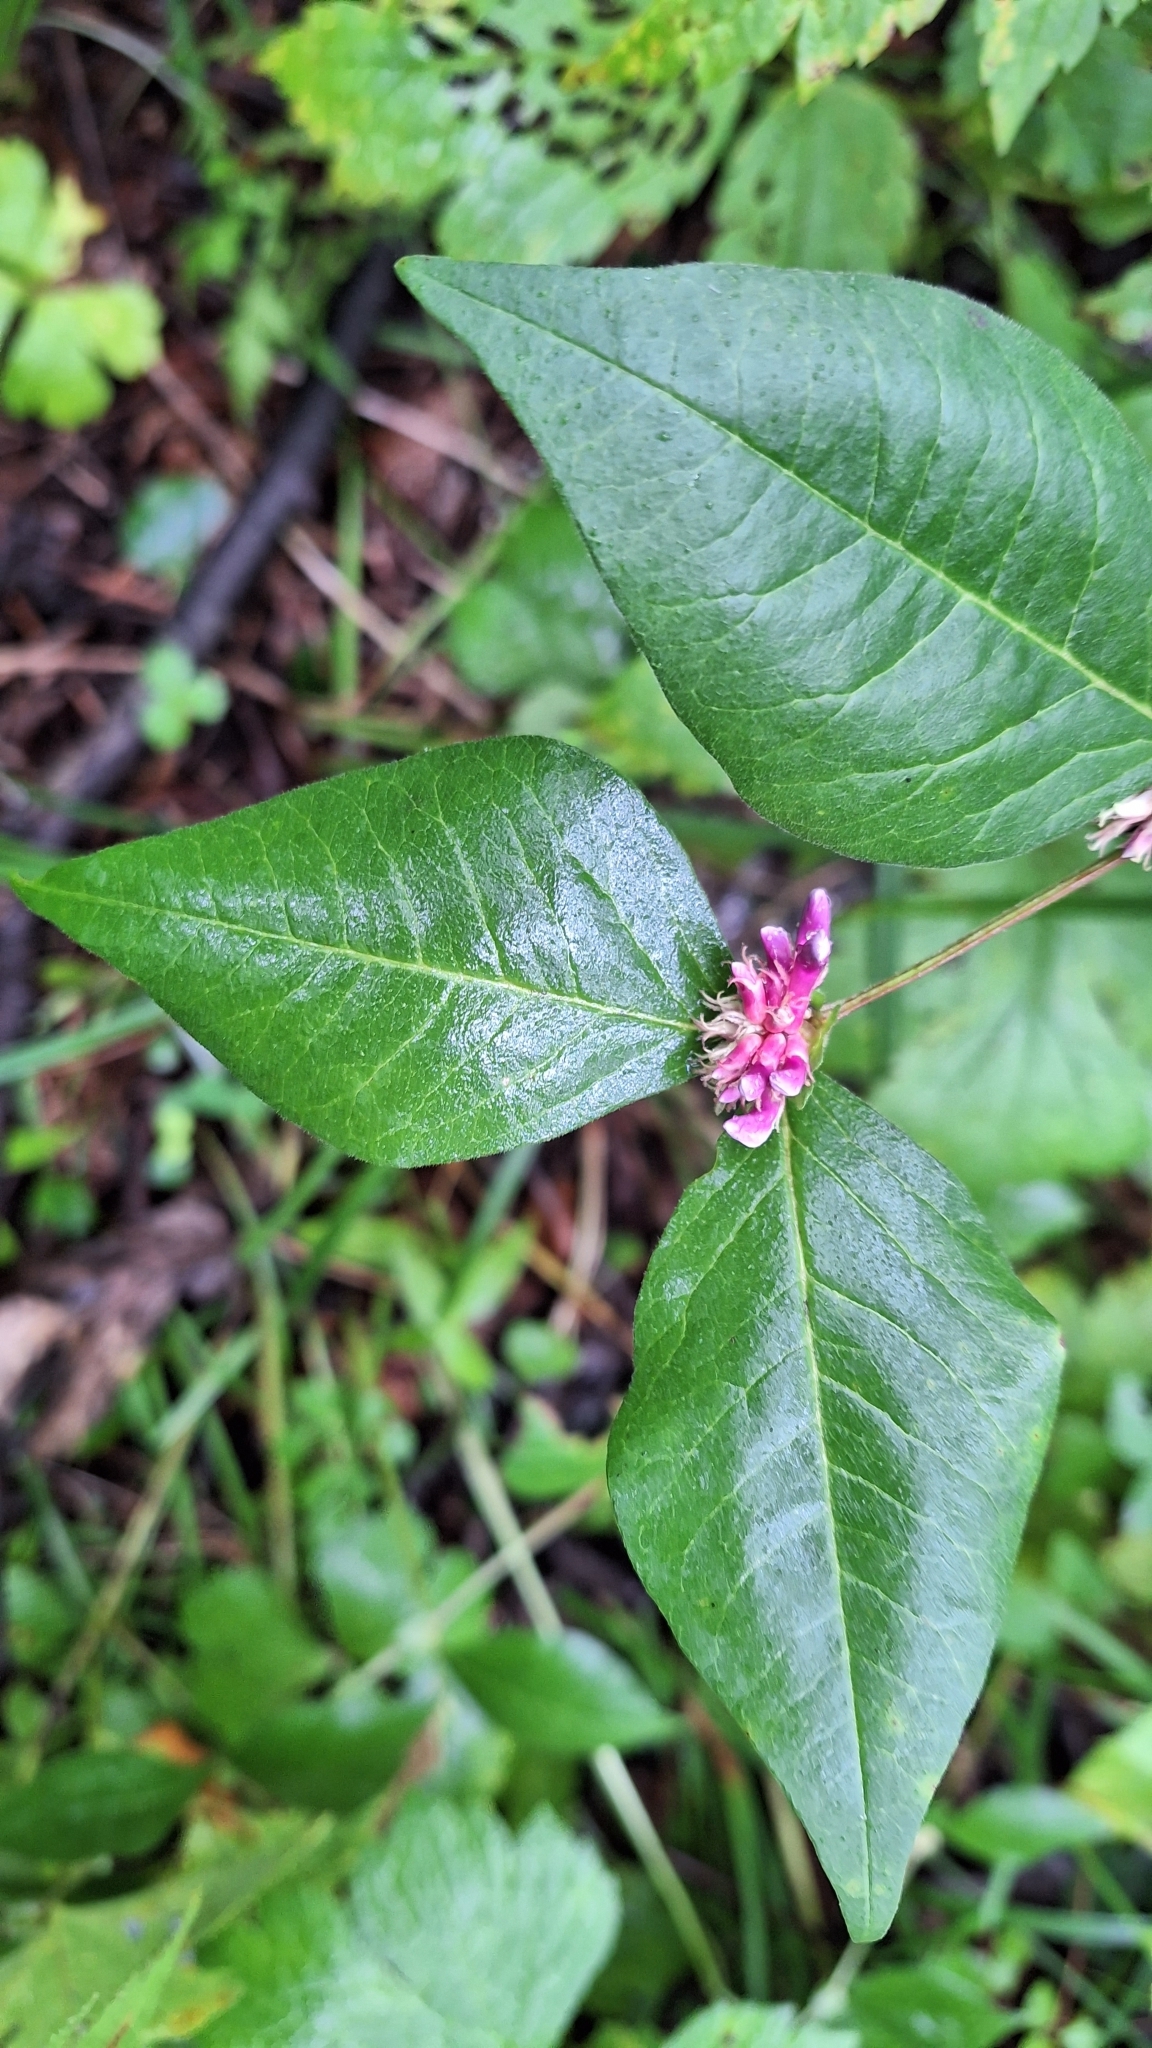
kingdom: Plantae
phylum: Tracheophyta
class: Magnoliopsida
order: Fabales
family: Fabaceae
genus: Vicia
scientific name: Vicia ohwiana
